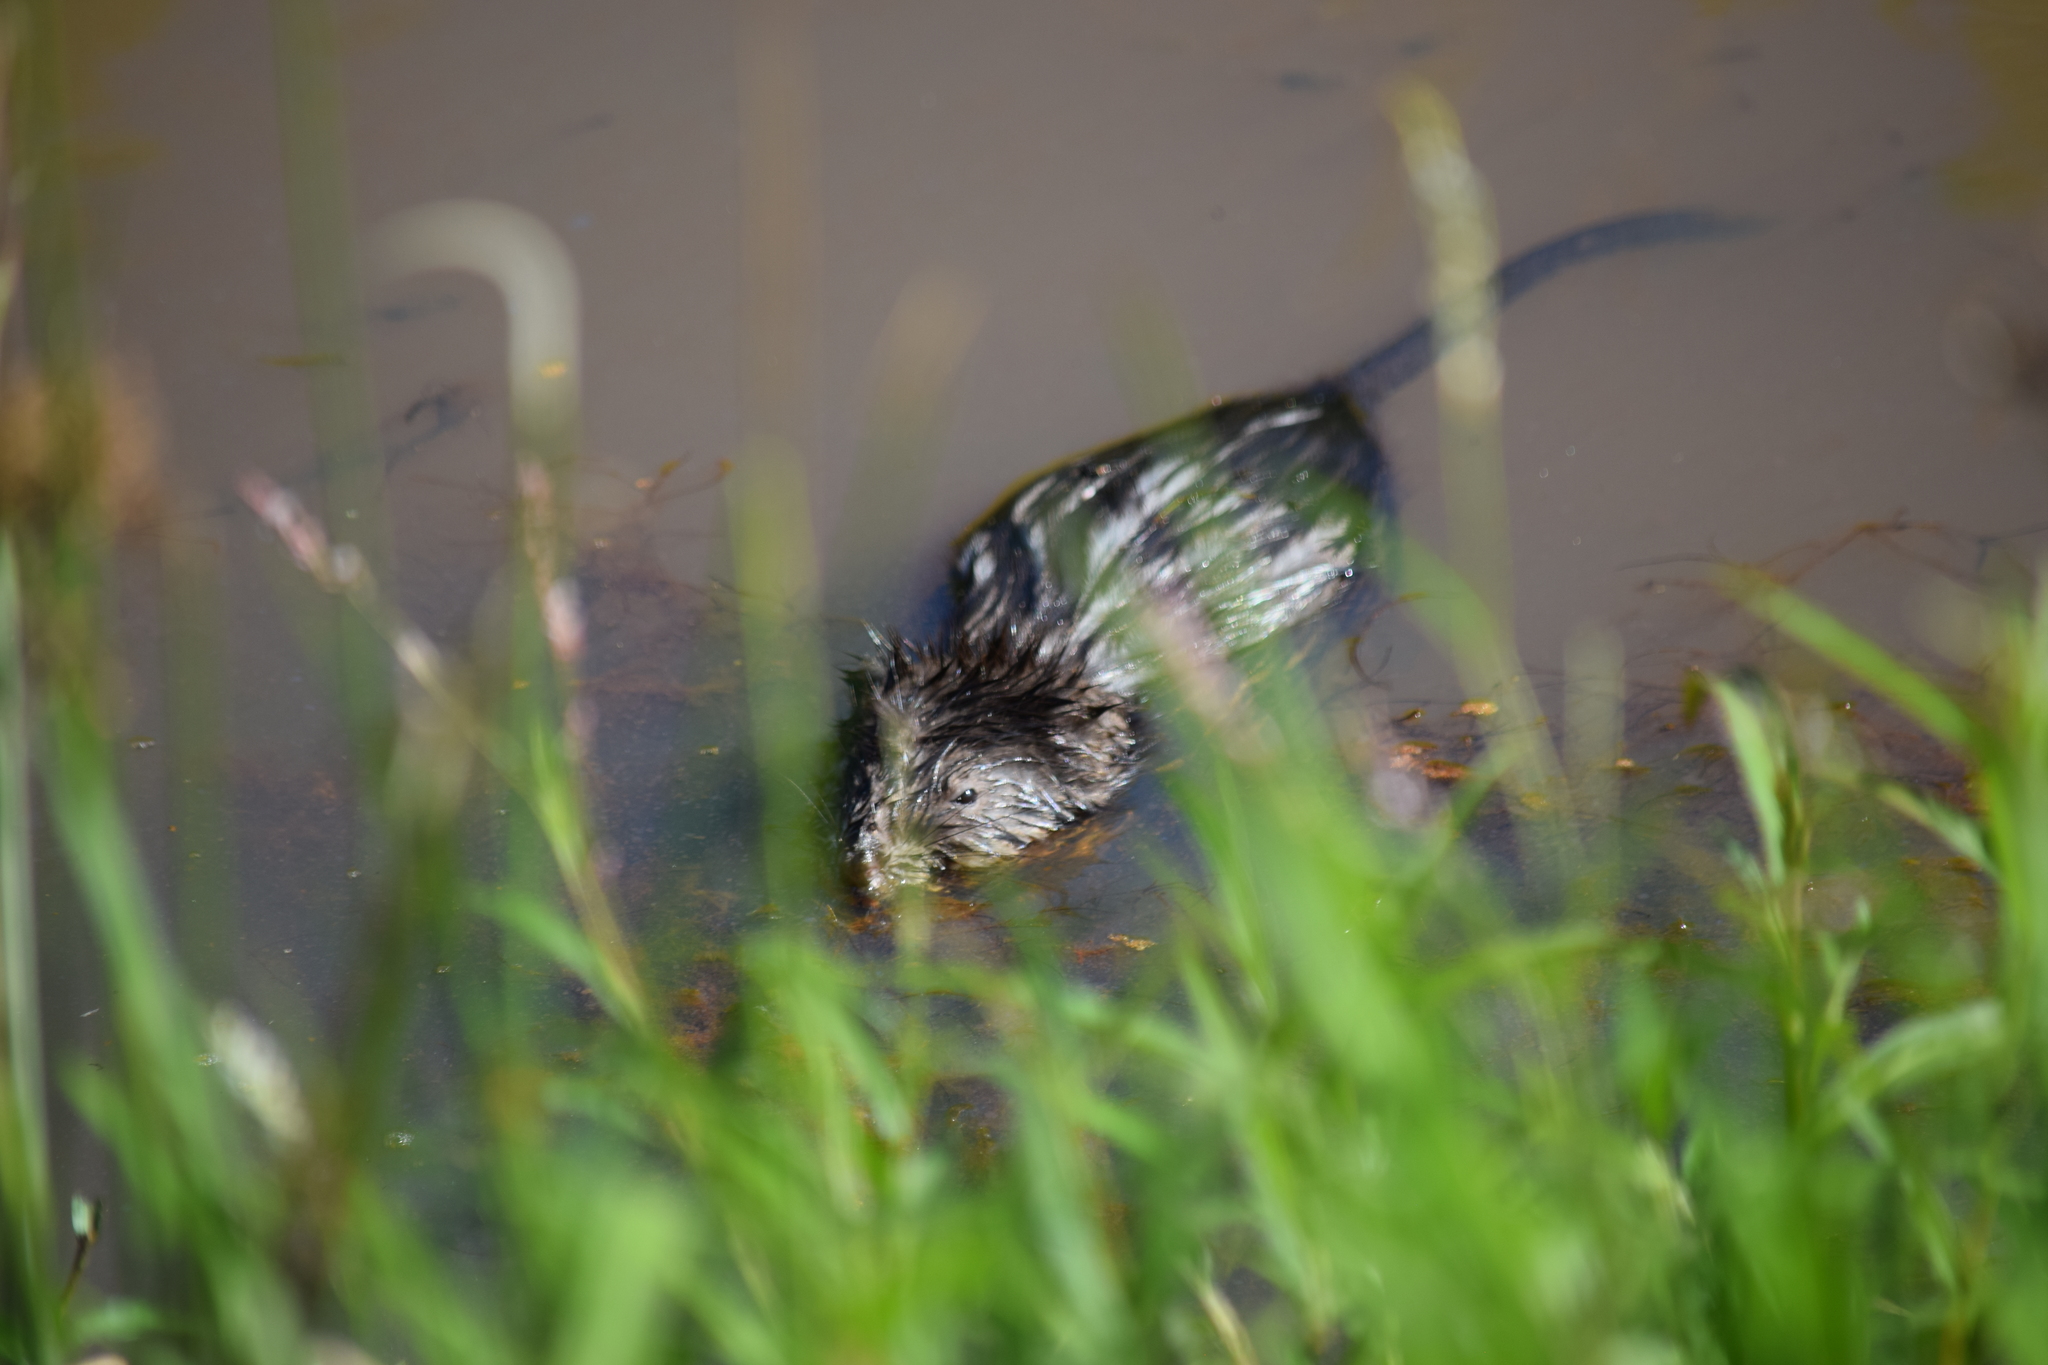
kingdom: Animalia
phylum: Chordata
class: Mammalia
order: Rodentia
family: Cricetidae
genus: Ondatra
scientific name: Ondatra zibethicus
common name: Muskrat
